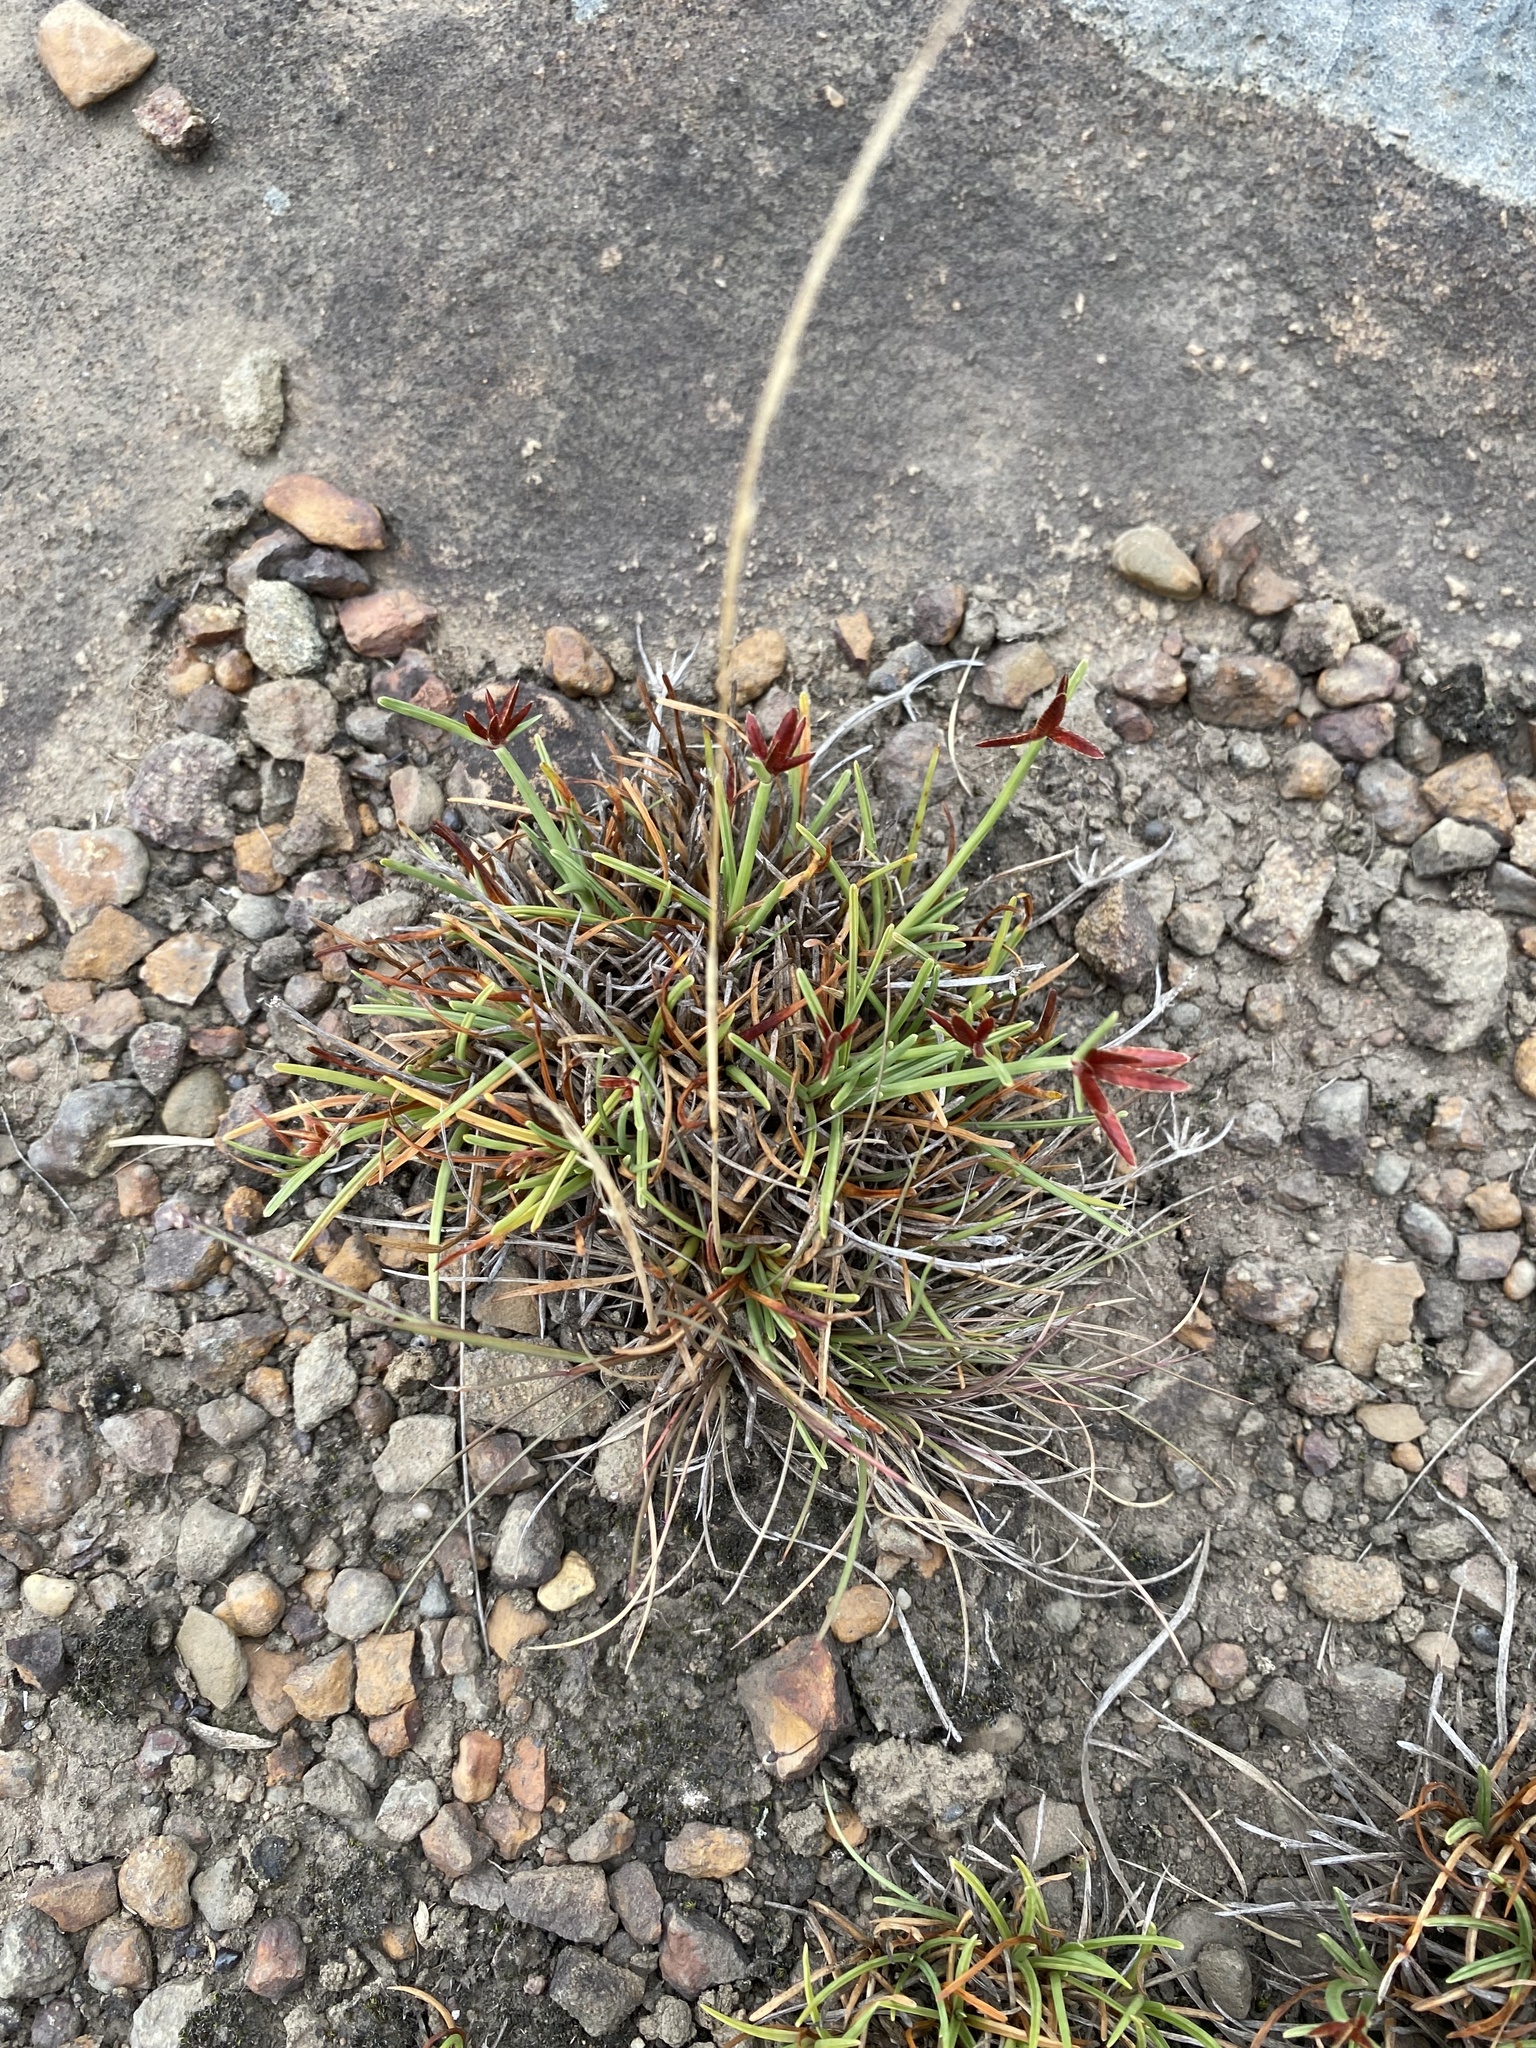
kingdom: Plantae
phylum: Tracheophyta
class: Liliopsida
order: Poales
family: Cyperaceae
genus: Cyperus
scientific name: Cyperus rupestris
